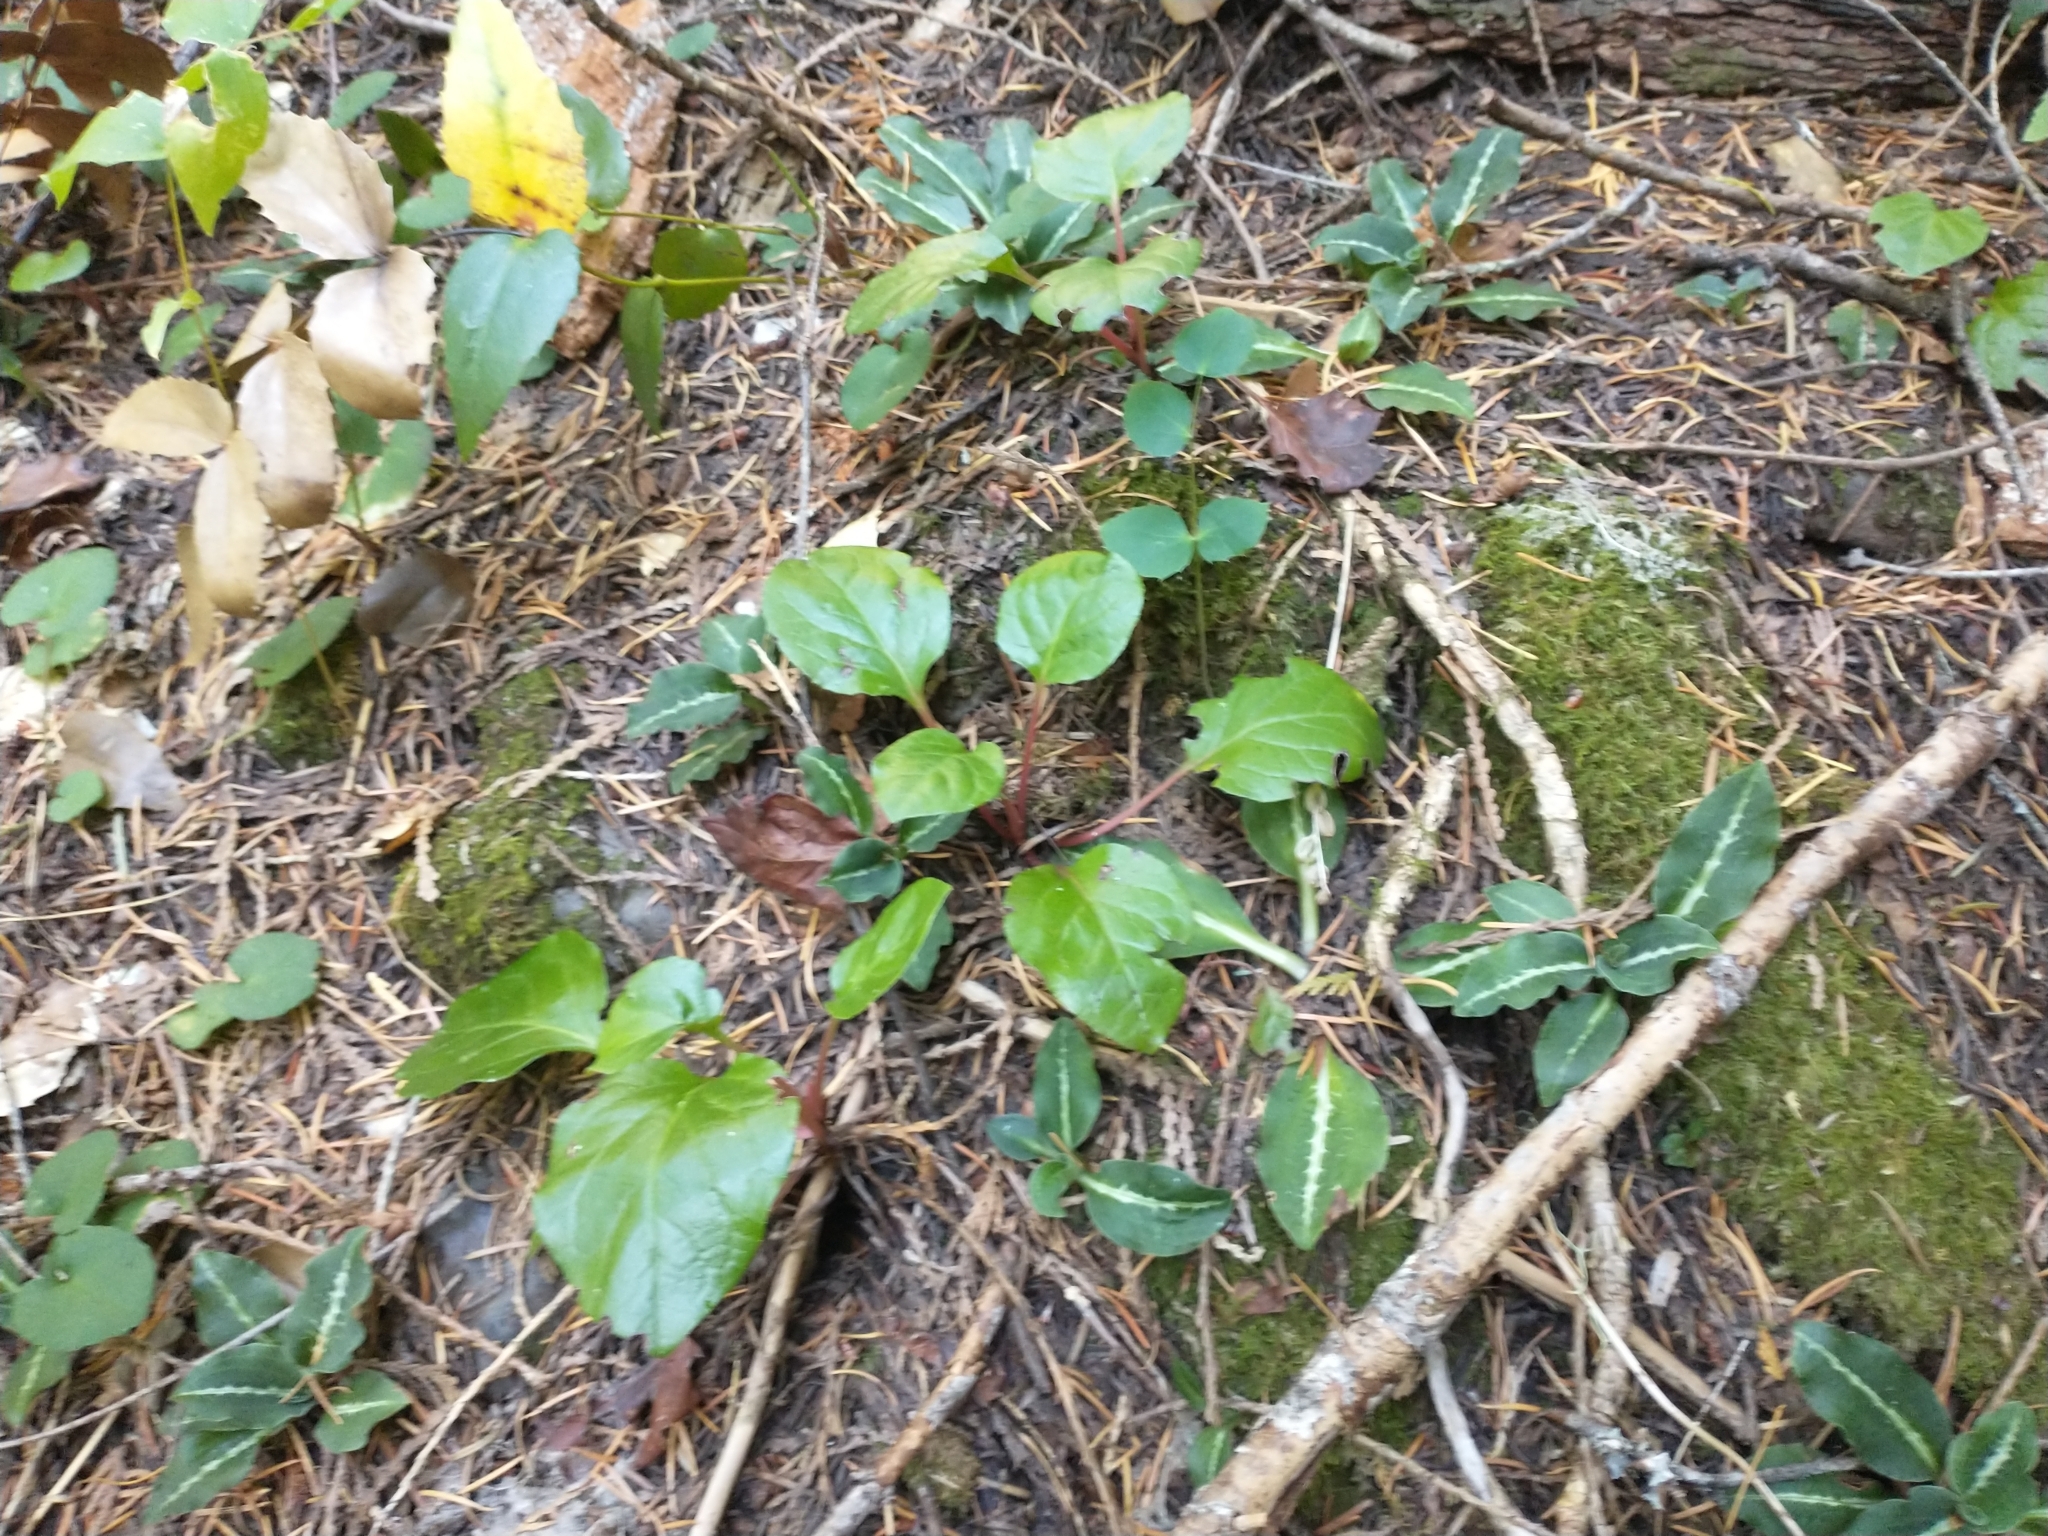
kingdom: Plantae
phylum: Tracheophyta
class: Magnoliopsida
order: Ericales
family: Ericaceae
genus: Pyrola
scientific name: Pyrola asarifolia
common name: Bog wintergreen
